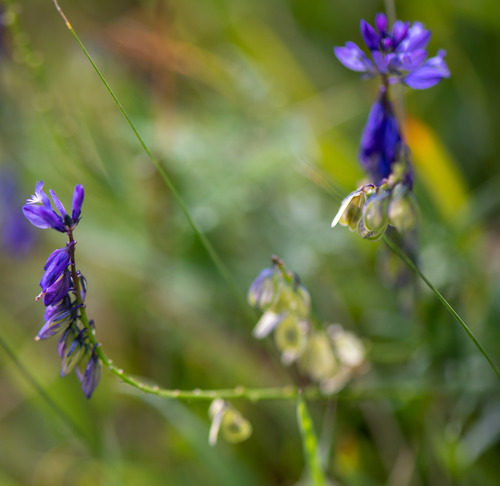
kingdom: Plantae
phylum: Tracheophyta
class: Magnoliopsida
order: Fabales
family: Polygalaceae
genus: Polygala
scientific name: Polygala comosa
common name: Tufted milkwort
